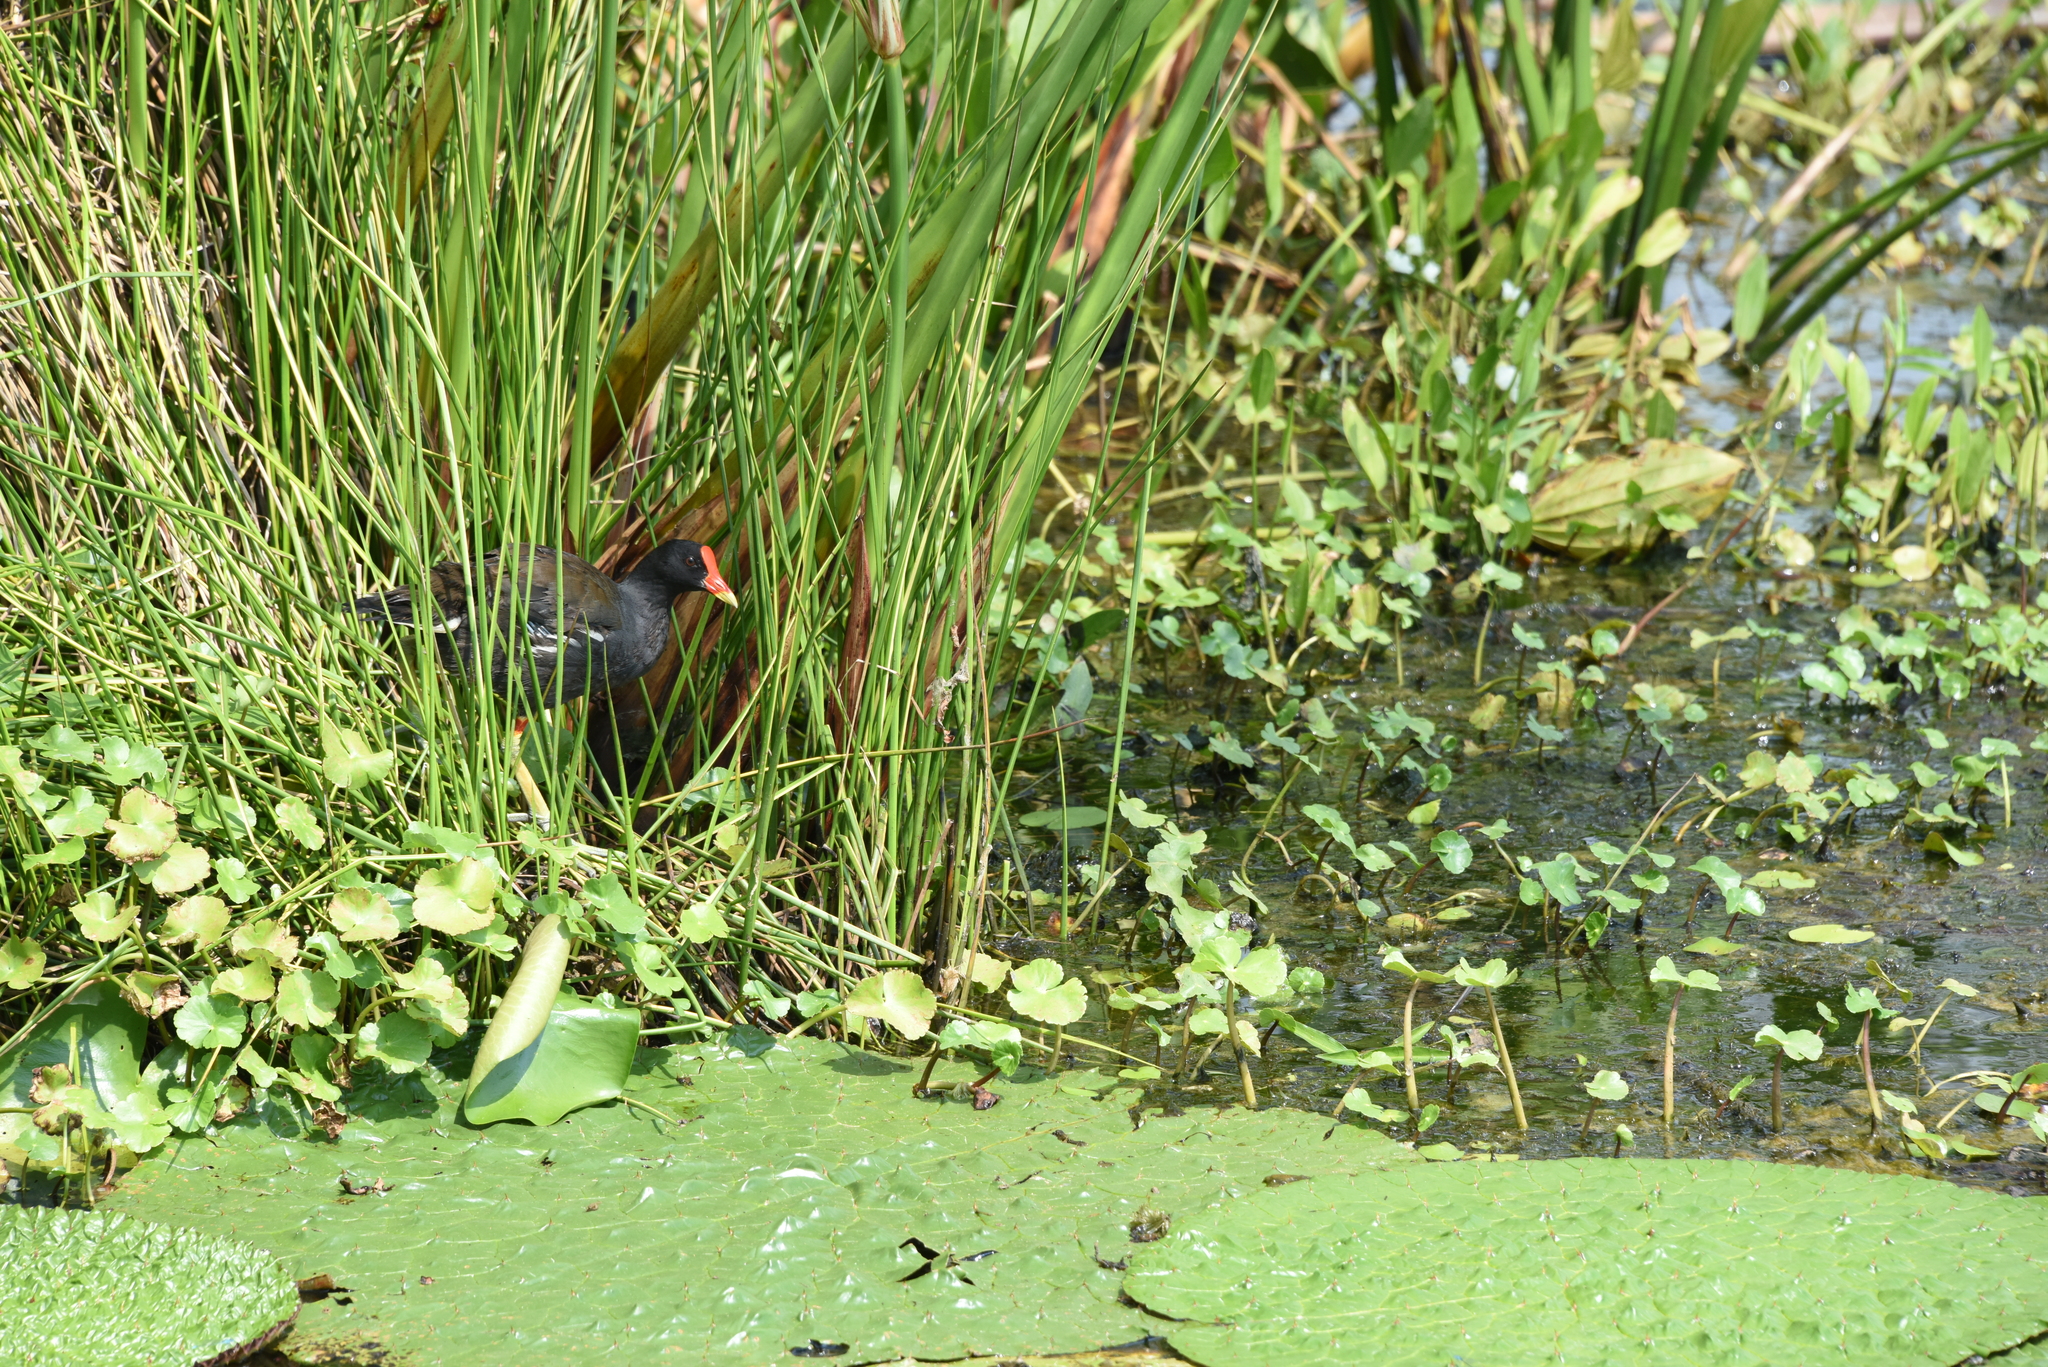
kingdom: Animalia
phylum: Chordata
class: Aves
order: Gruiformes
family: Rallidae
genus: Gallinula
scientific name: Gallinula chloropus
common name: Common moorhen
